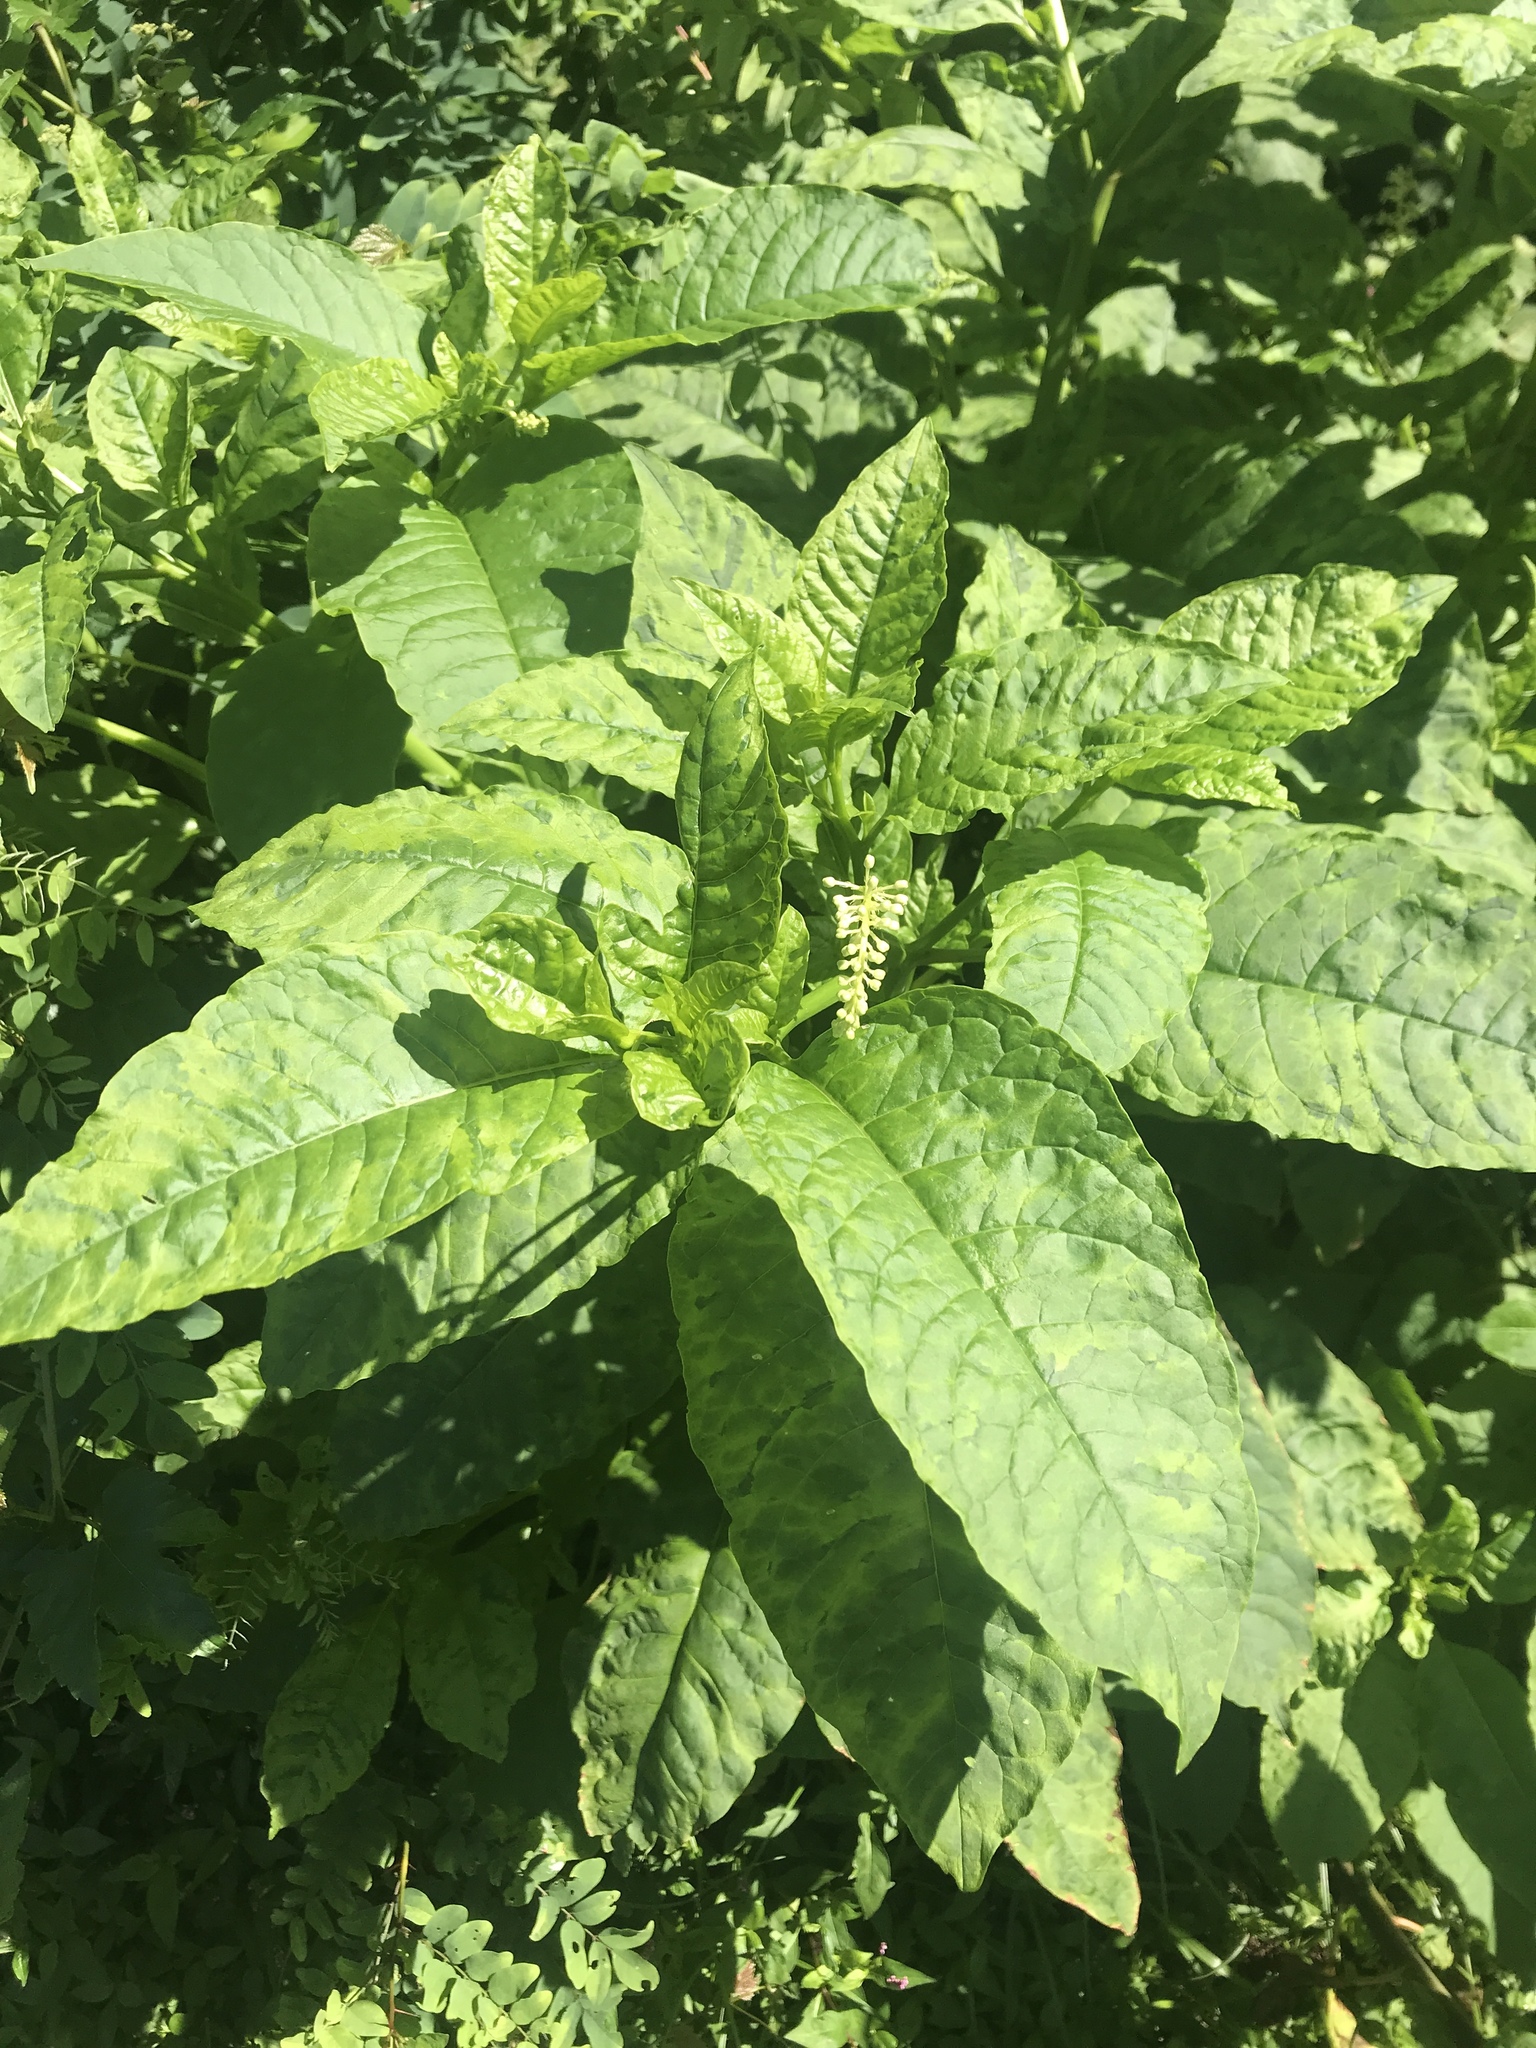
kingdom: Plantae
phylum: Tracheophyta
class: Magnoliopsida
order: Caryophyllales
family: Phytolaccaceae
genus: Phytolacca
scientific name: Phytolacca americana
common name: American pokeweed
